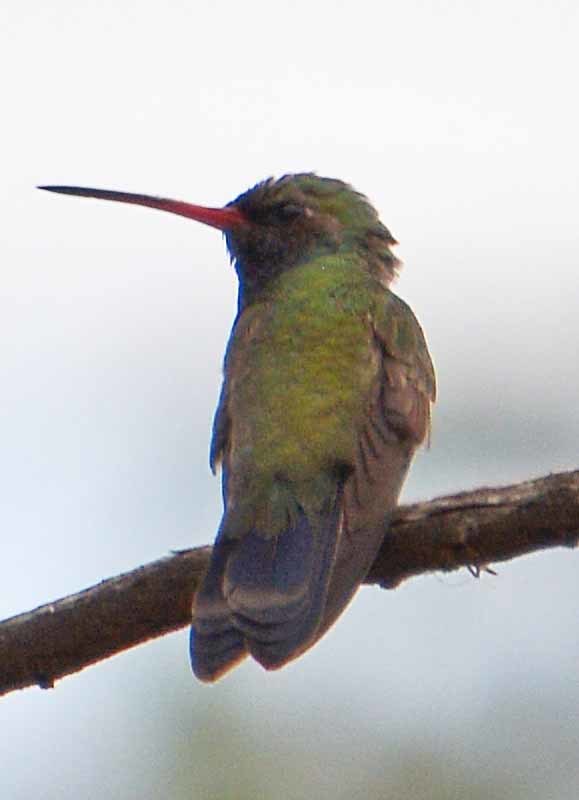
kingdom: Animalia
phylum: Chordata
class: Aves
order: Apodiformes
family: Trochilidae
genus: Cynanthus
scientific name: Cynanthus latirostris
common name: Broad-billed hummingbird
